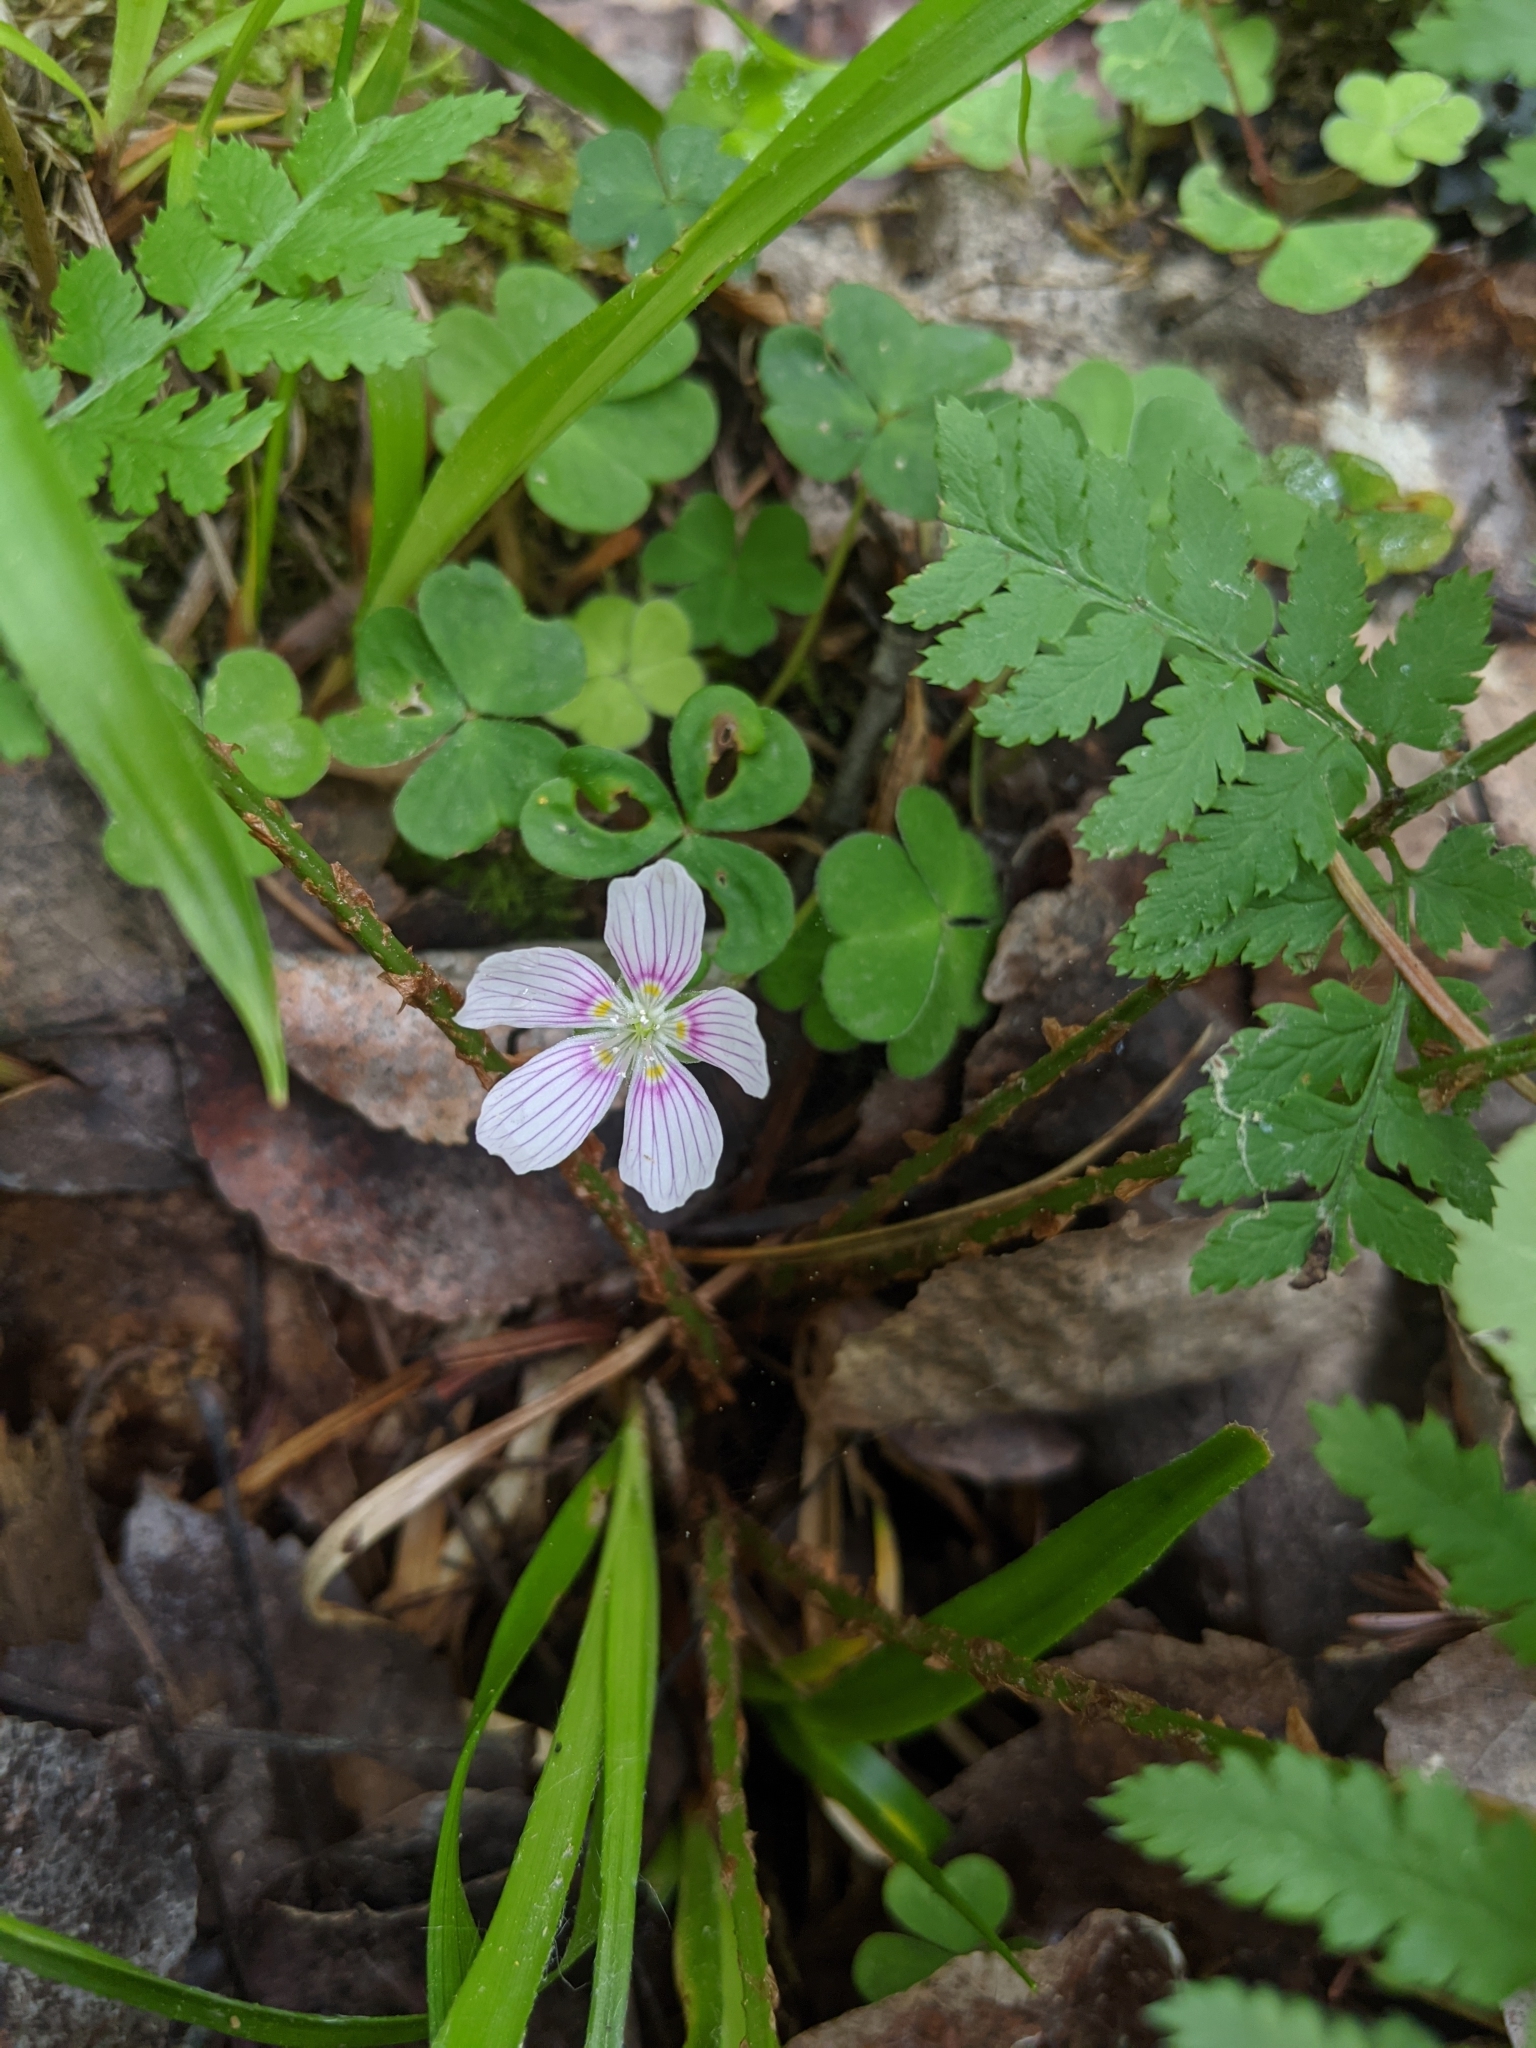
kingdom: Plantae
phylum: Tracheophyta
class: Magnoliopsida
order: Oxalidales
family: Oxalidaceae
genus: Oxalis
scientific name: Oxalis montana
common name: American wood-sorrel
